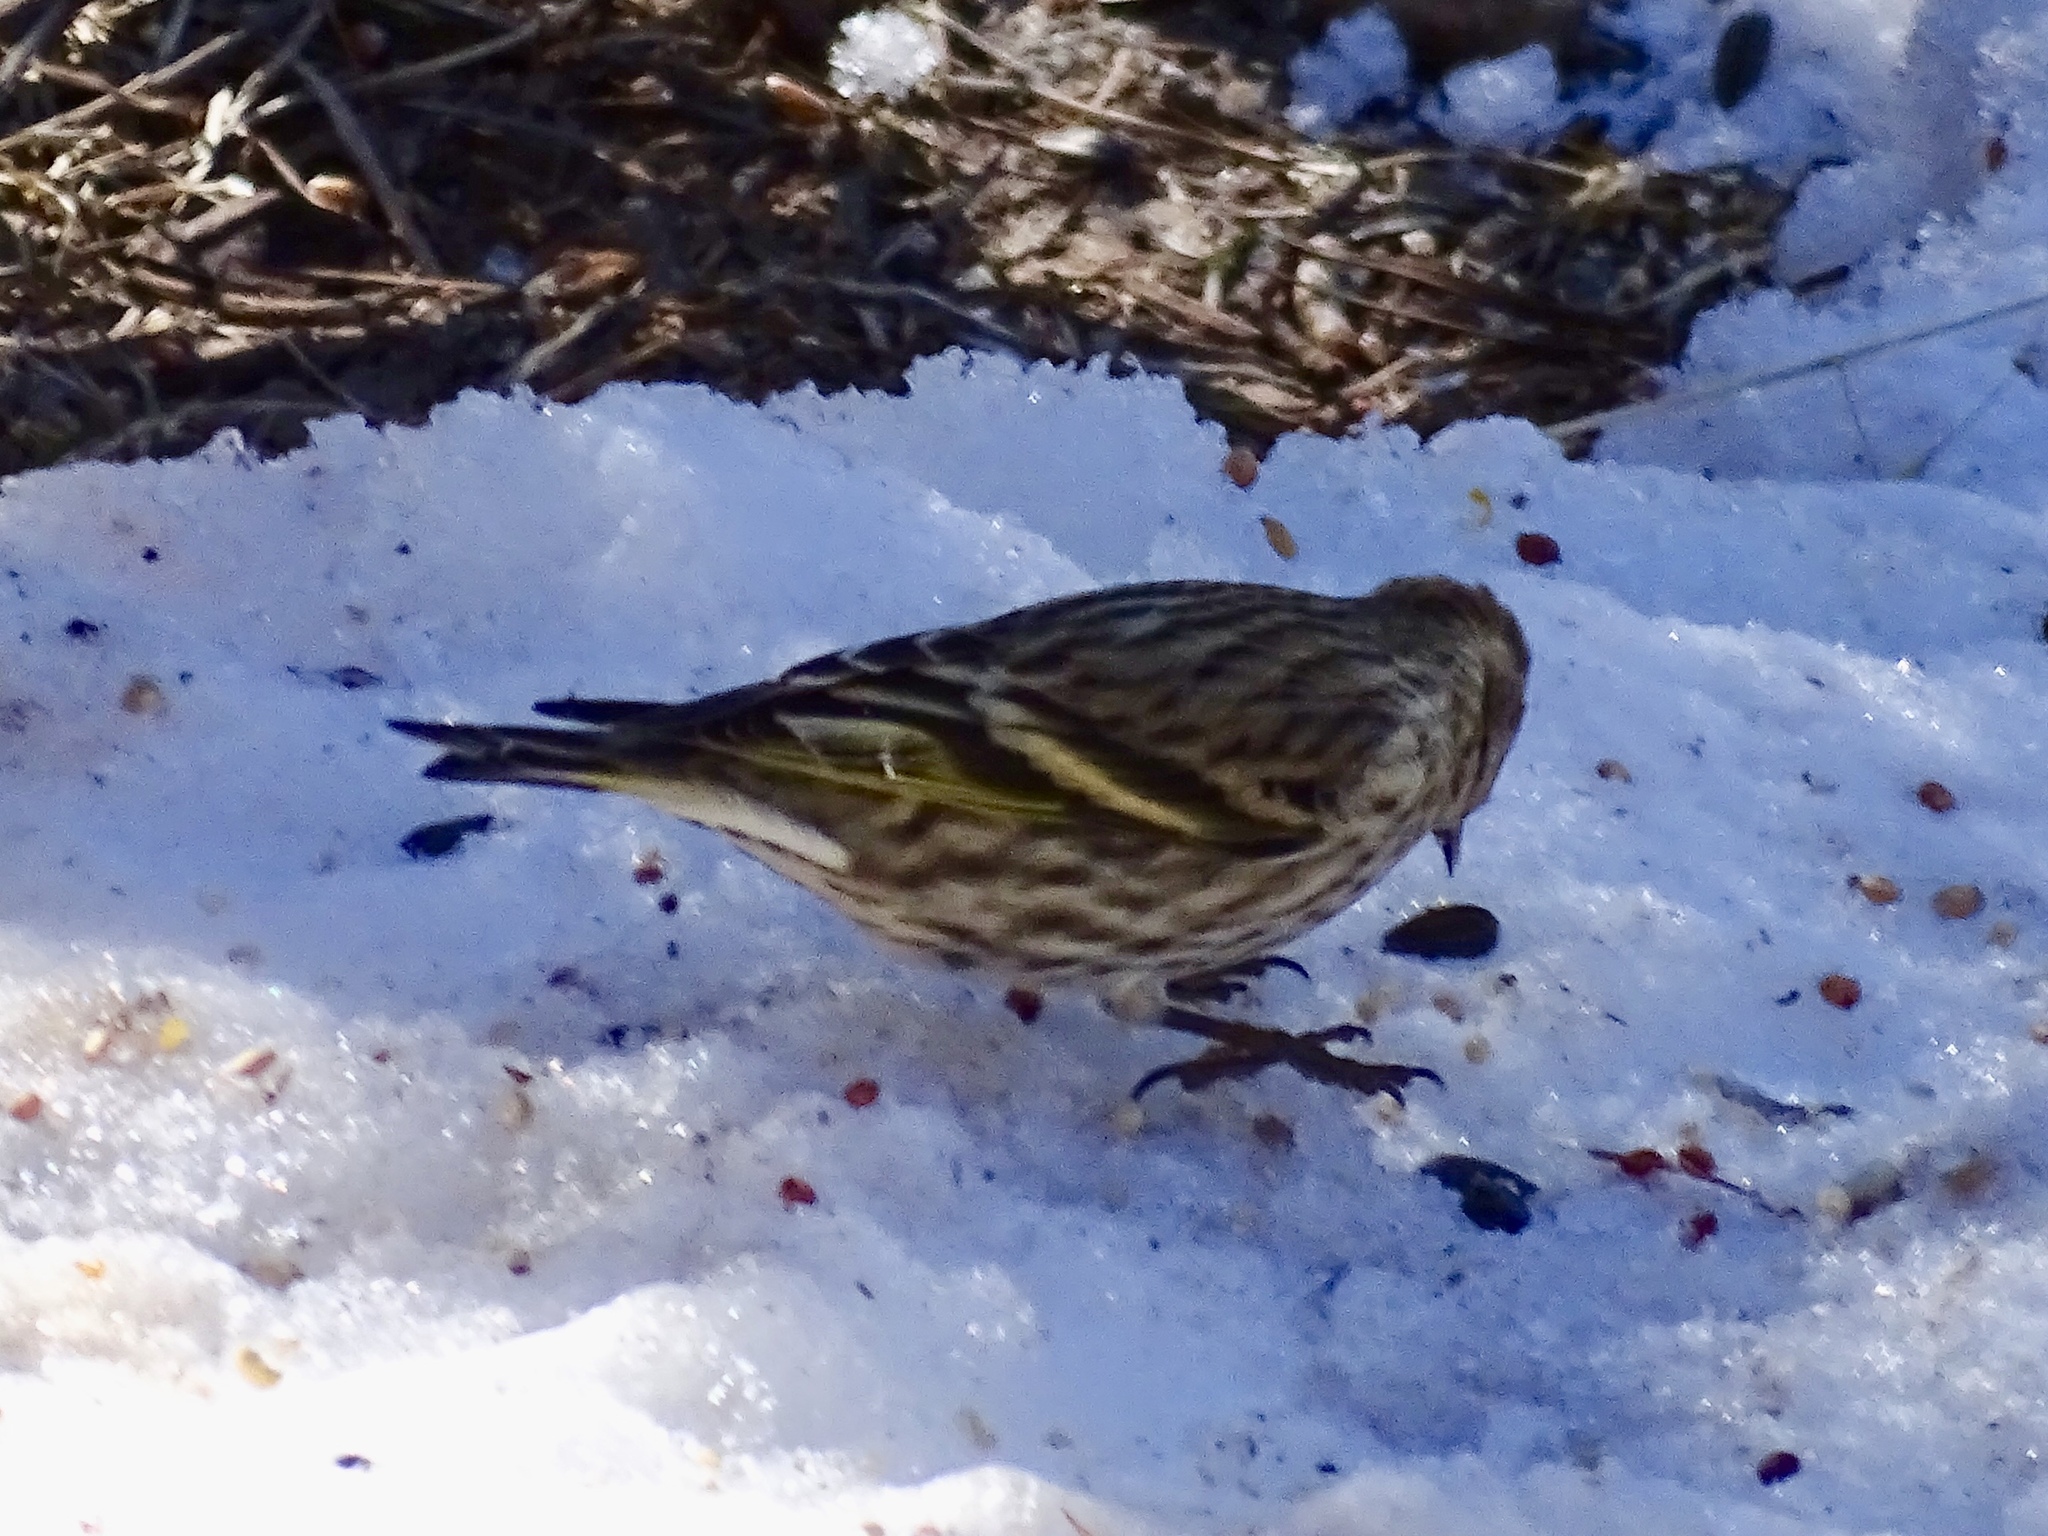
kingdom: Animalia
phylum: Chordata
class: Aves
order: Passeriformes
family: Fringillidae
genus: Spinus
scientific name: Spinus pinus
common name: Pine siskin
